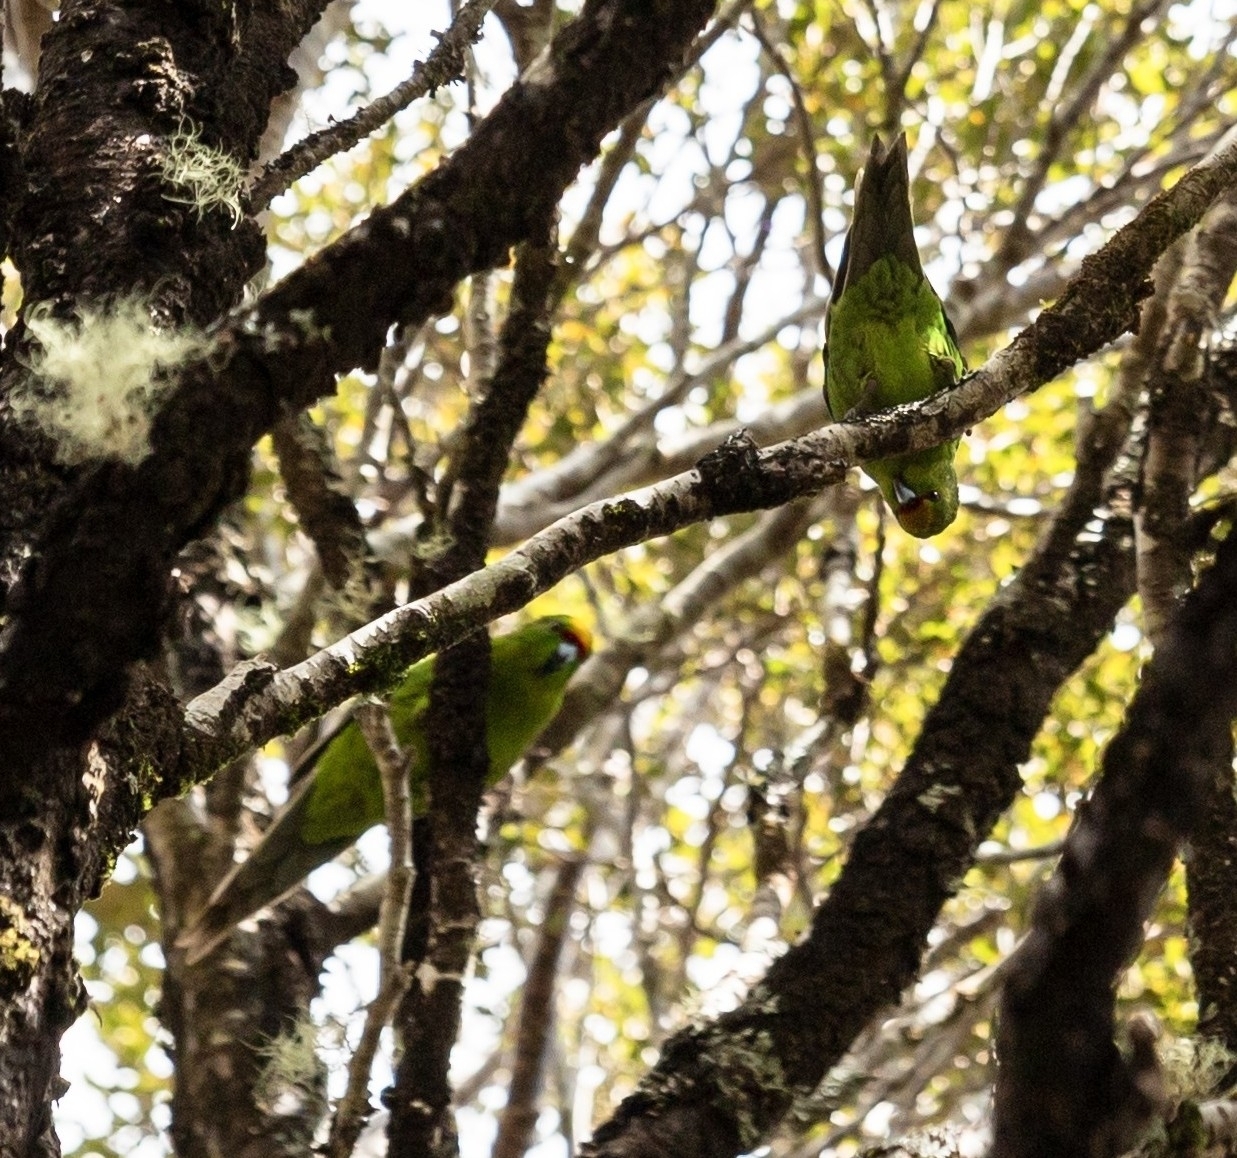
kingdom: Animalia
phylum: Chordata
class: Aves
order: Psittaciformes
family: Psittacidae
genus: Cyanoramphus
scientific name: Cyanoramphus auriceps
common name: Yellow-crowned parakeet
